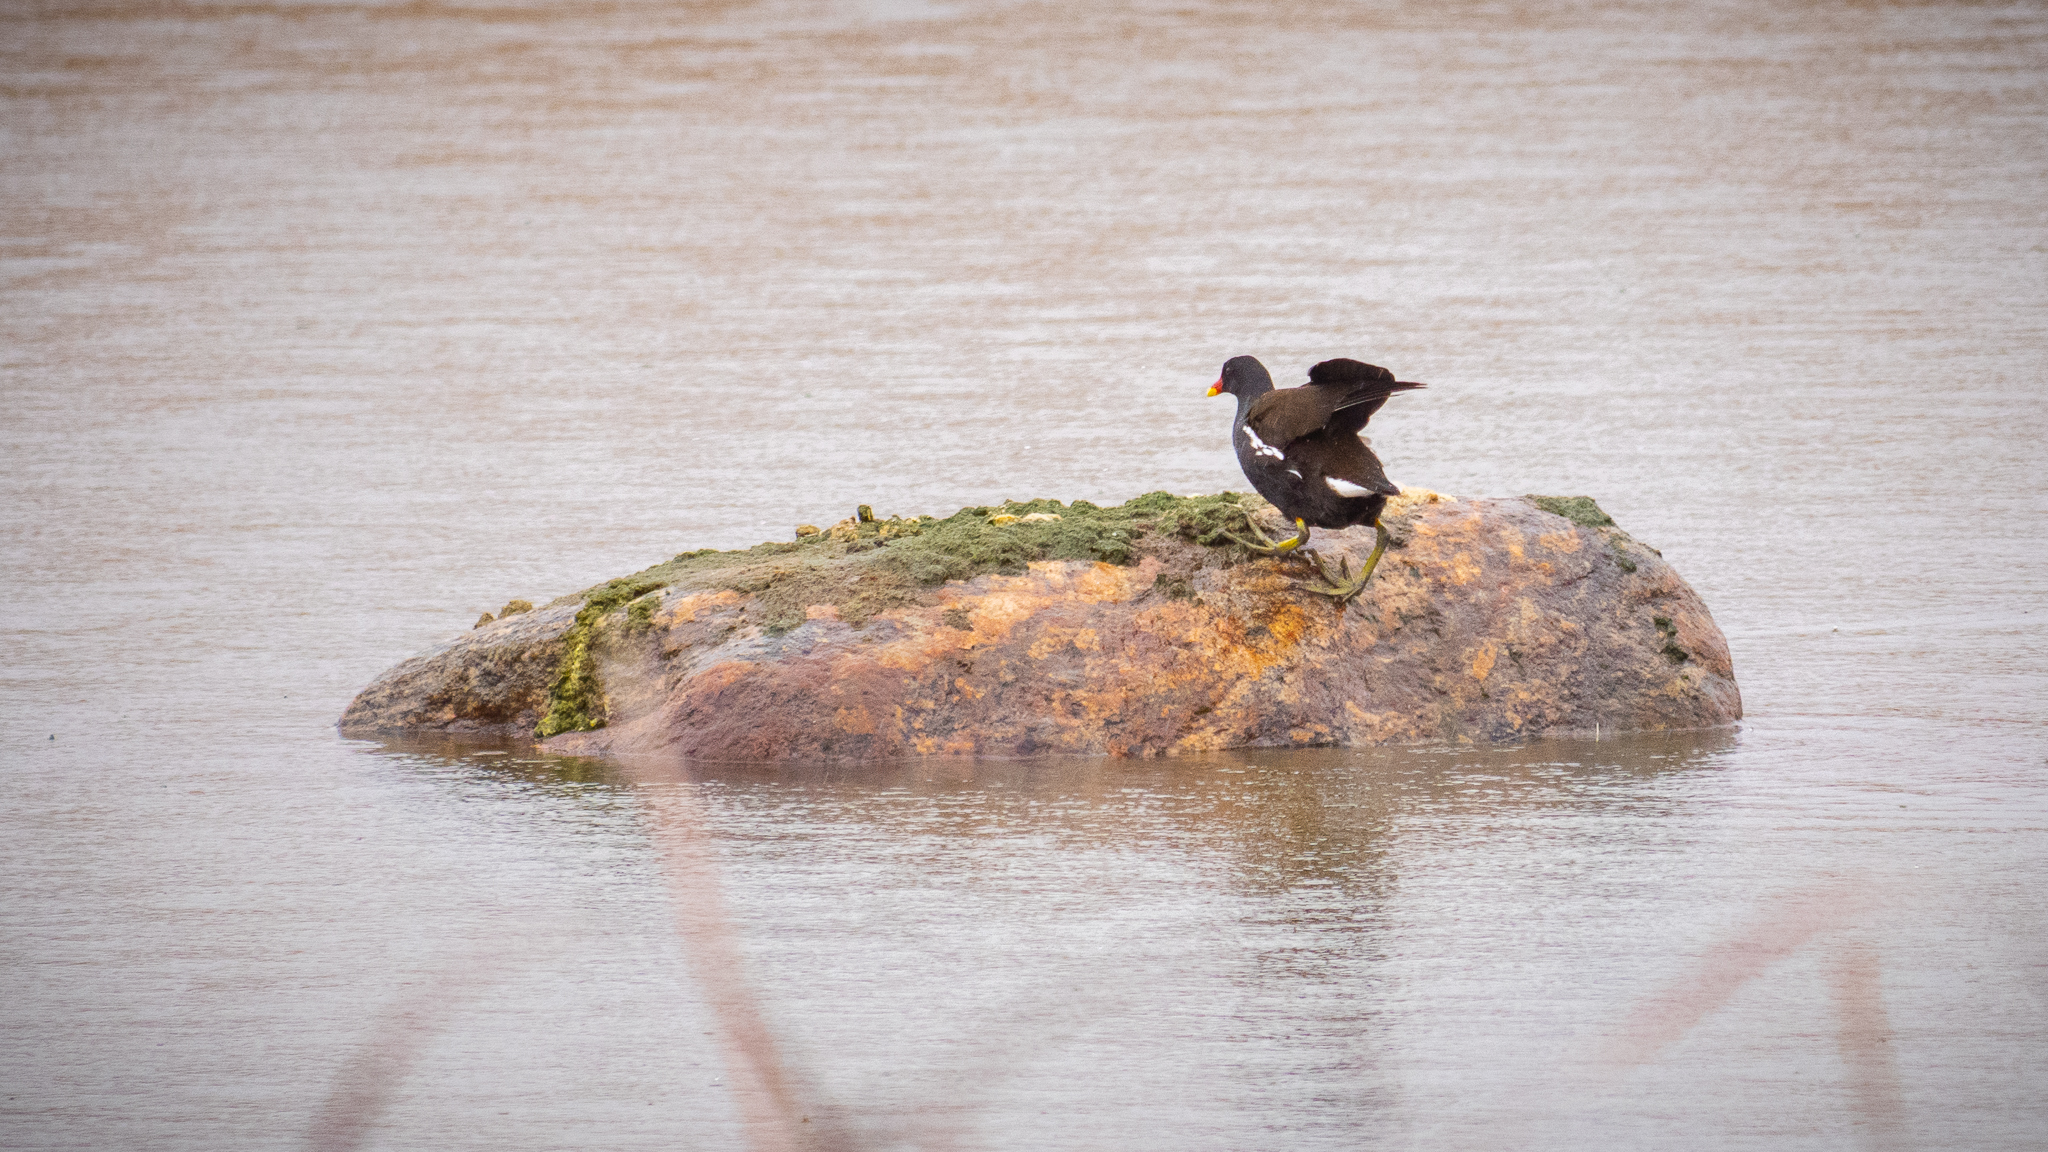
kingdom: Animalia
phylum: Chordata
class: Aves
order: Gruiformes
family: Rallidae
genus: Gallinula
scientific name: Gallinula chloropus
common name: Common moorhen
